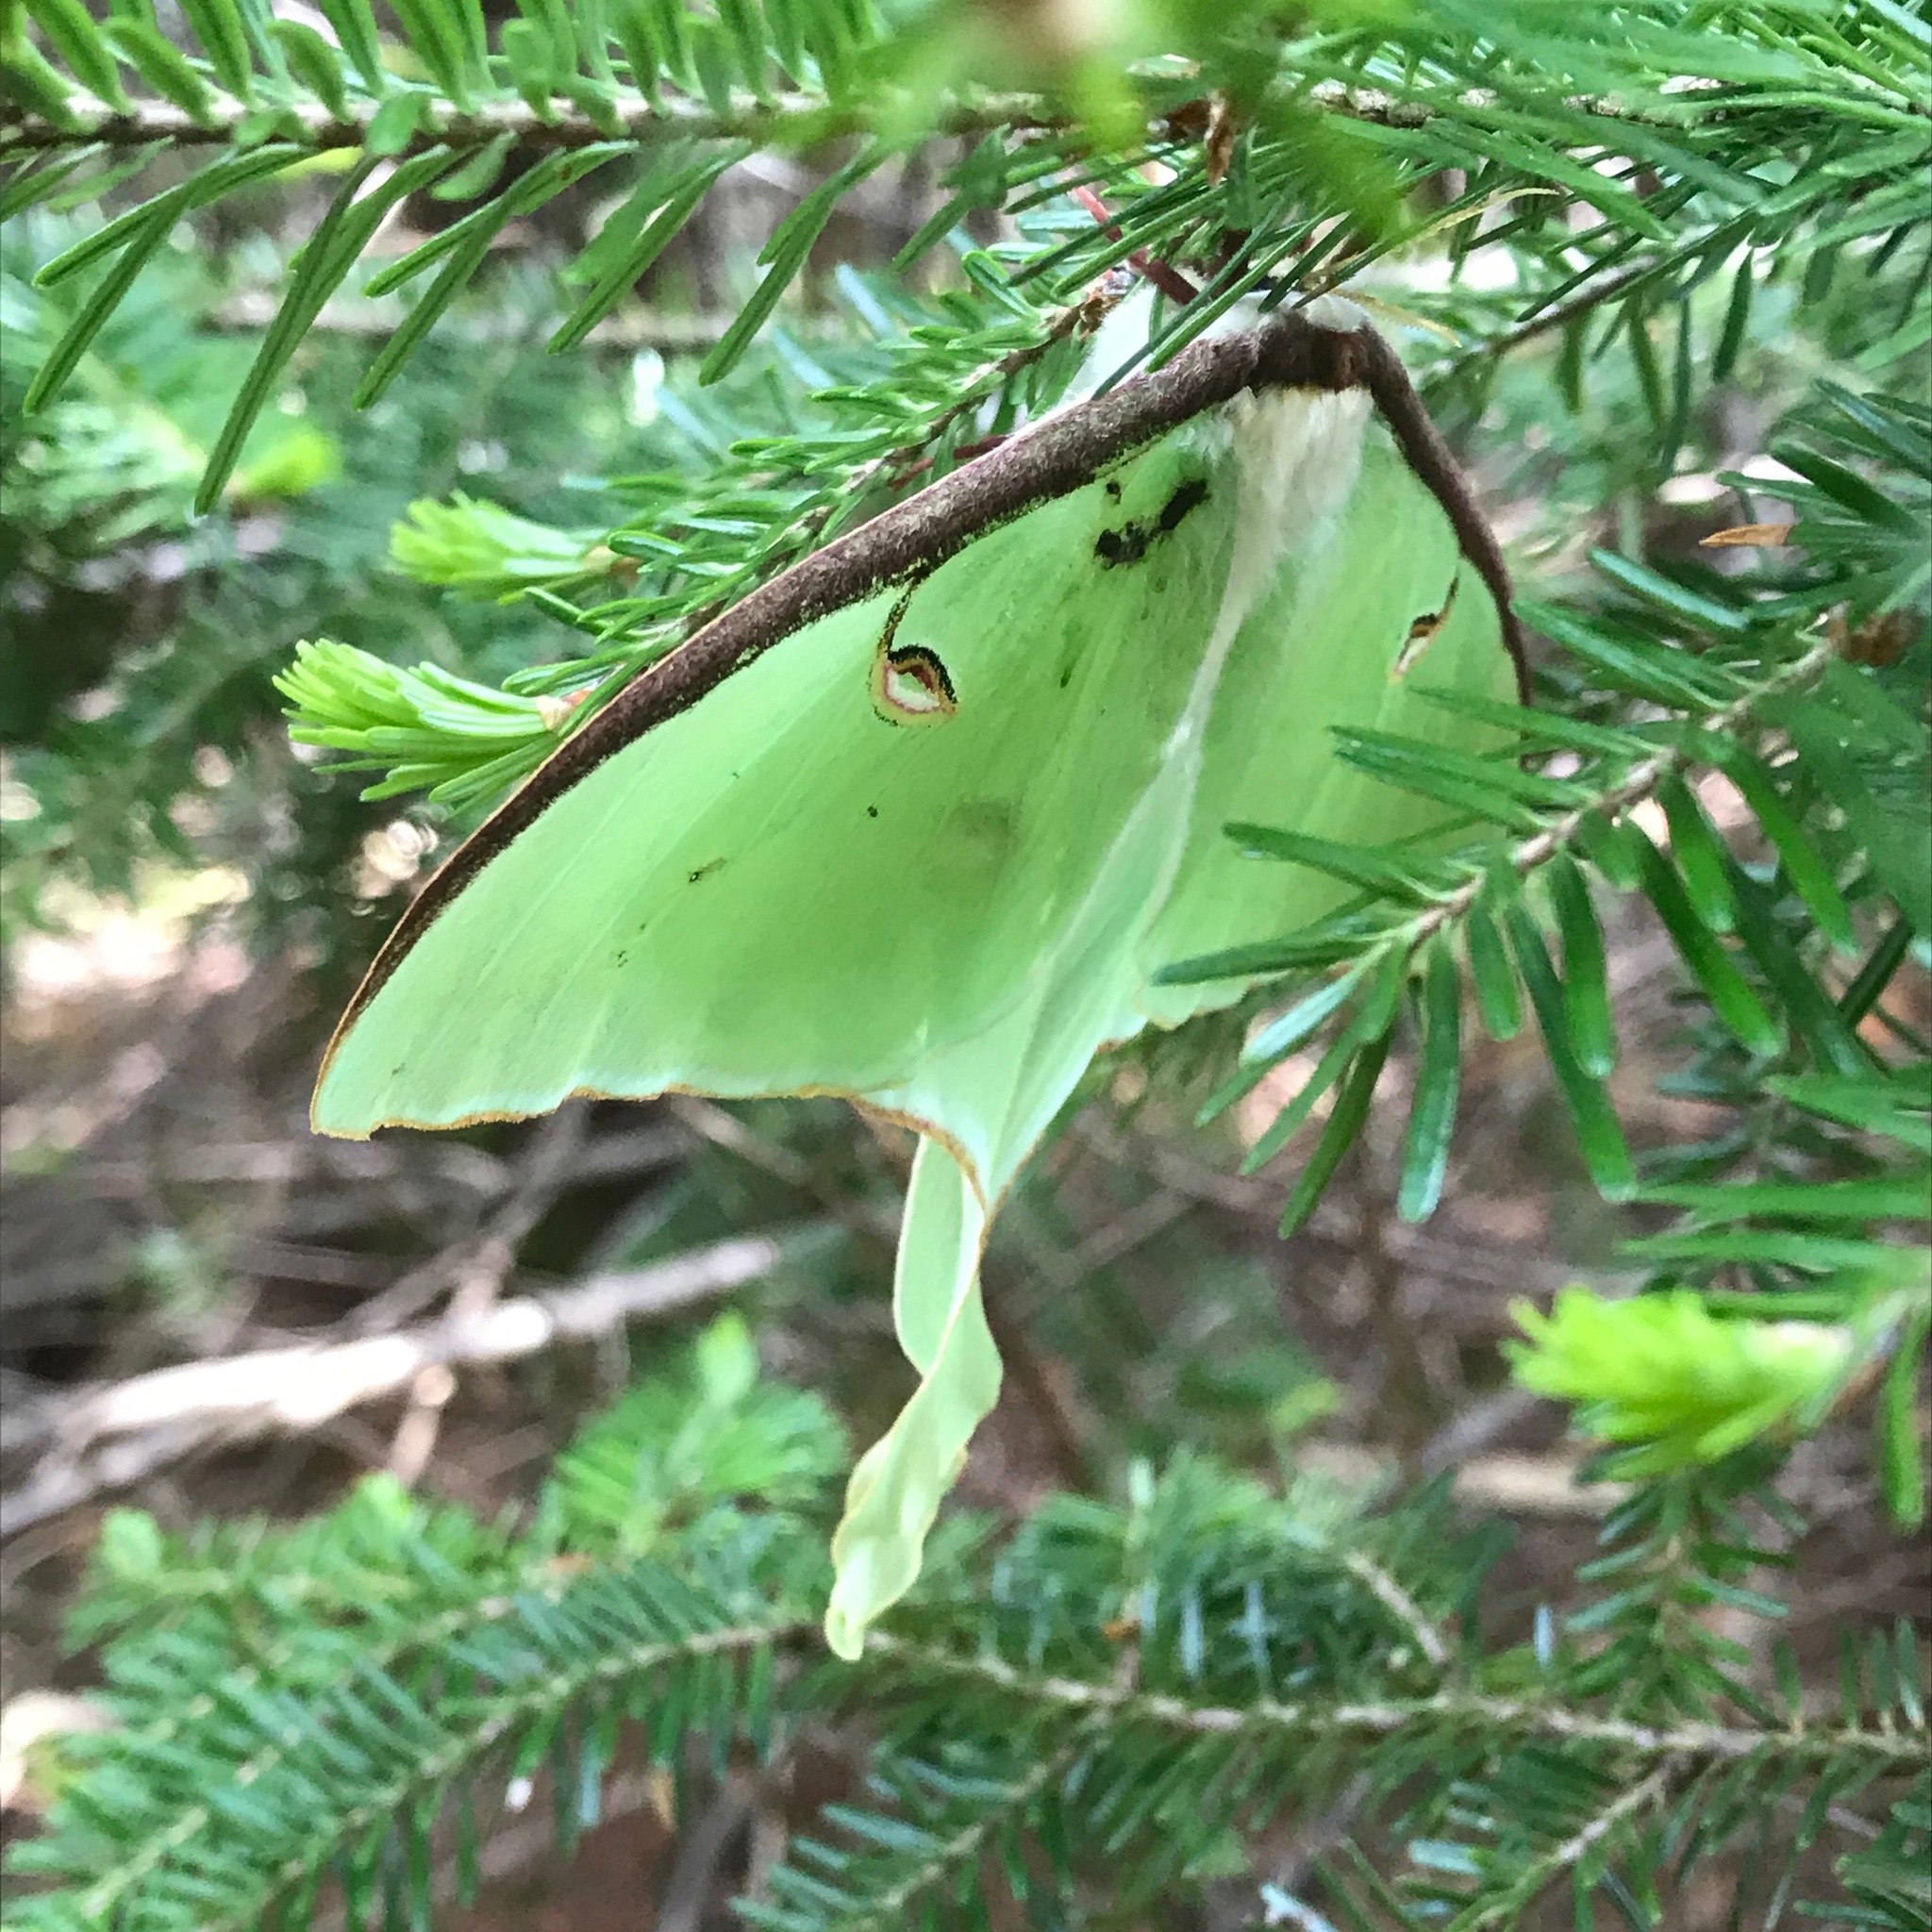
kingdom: Animalia
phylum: Arthropoda
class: Insecta
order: Lepidoptera
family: Saturniidae
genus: Actias
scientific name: Actias luna
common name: Luna moth
